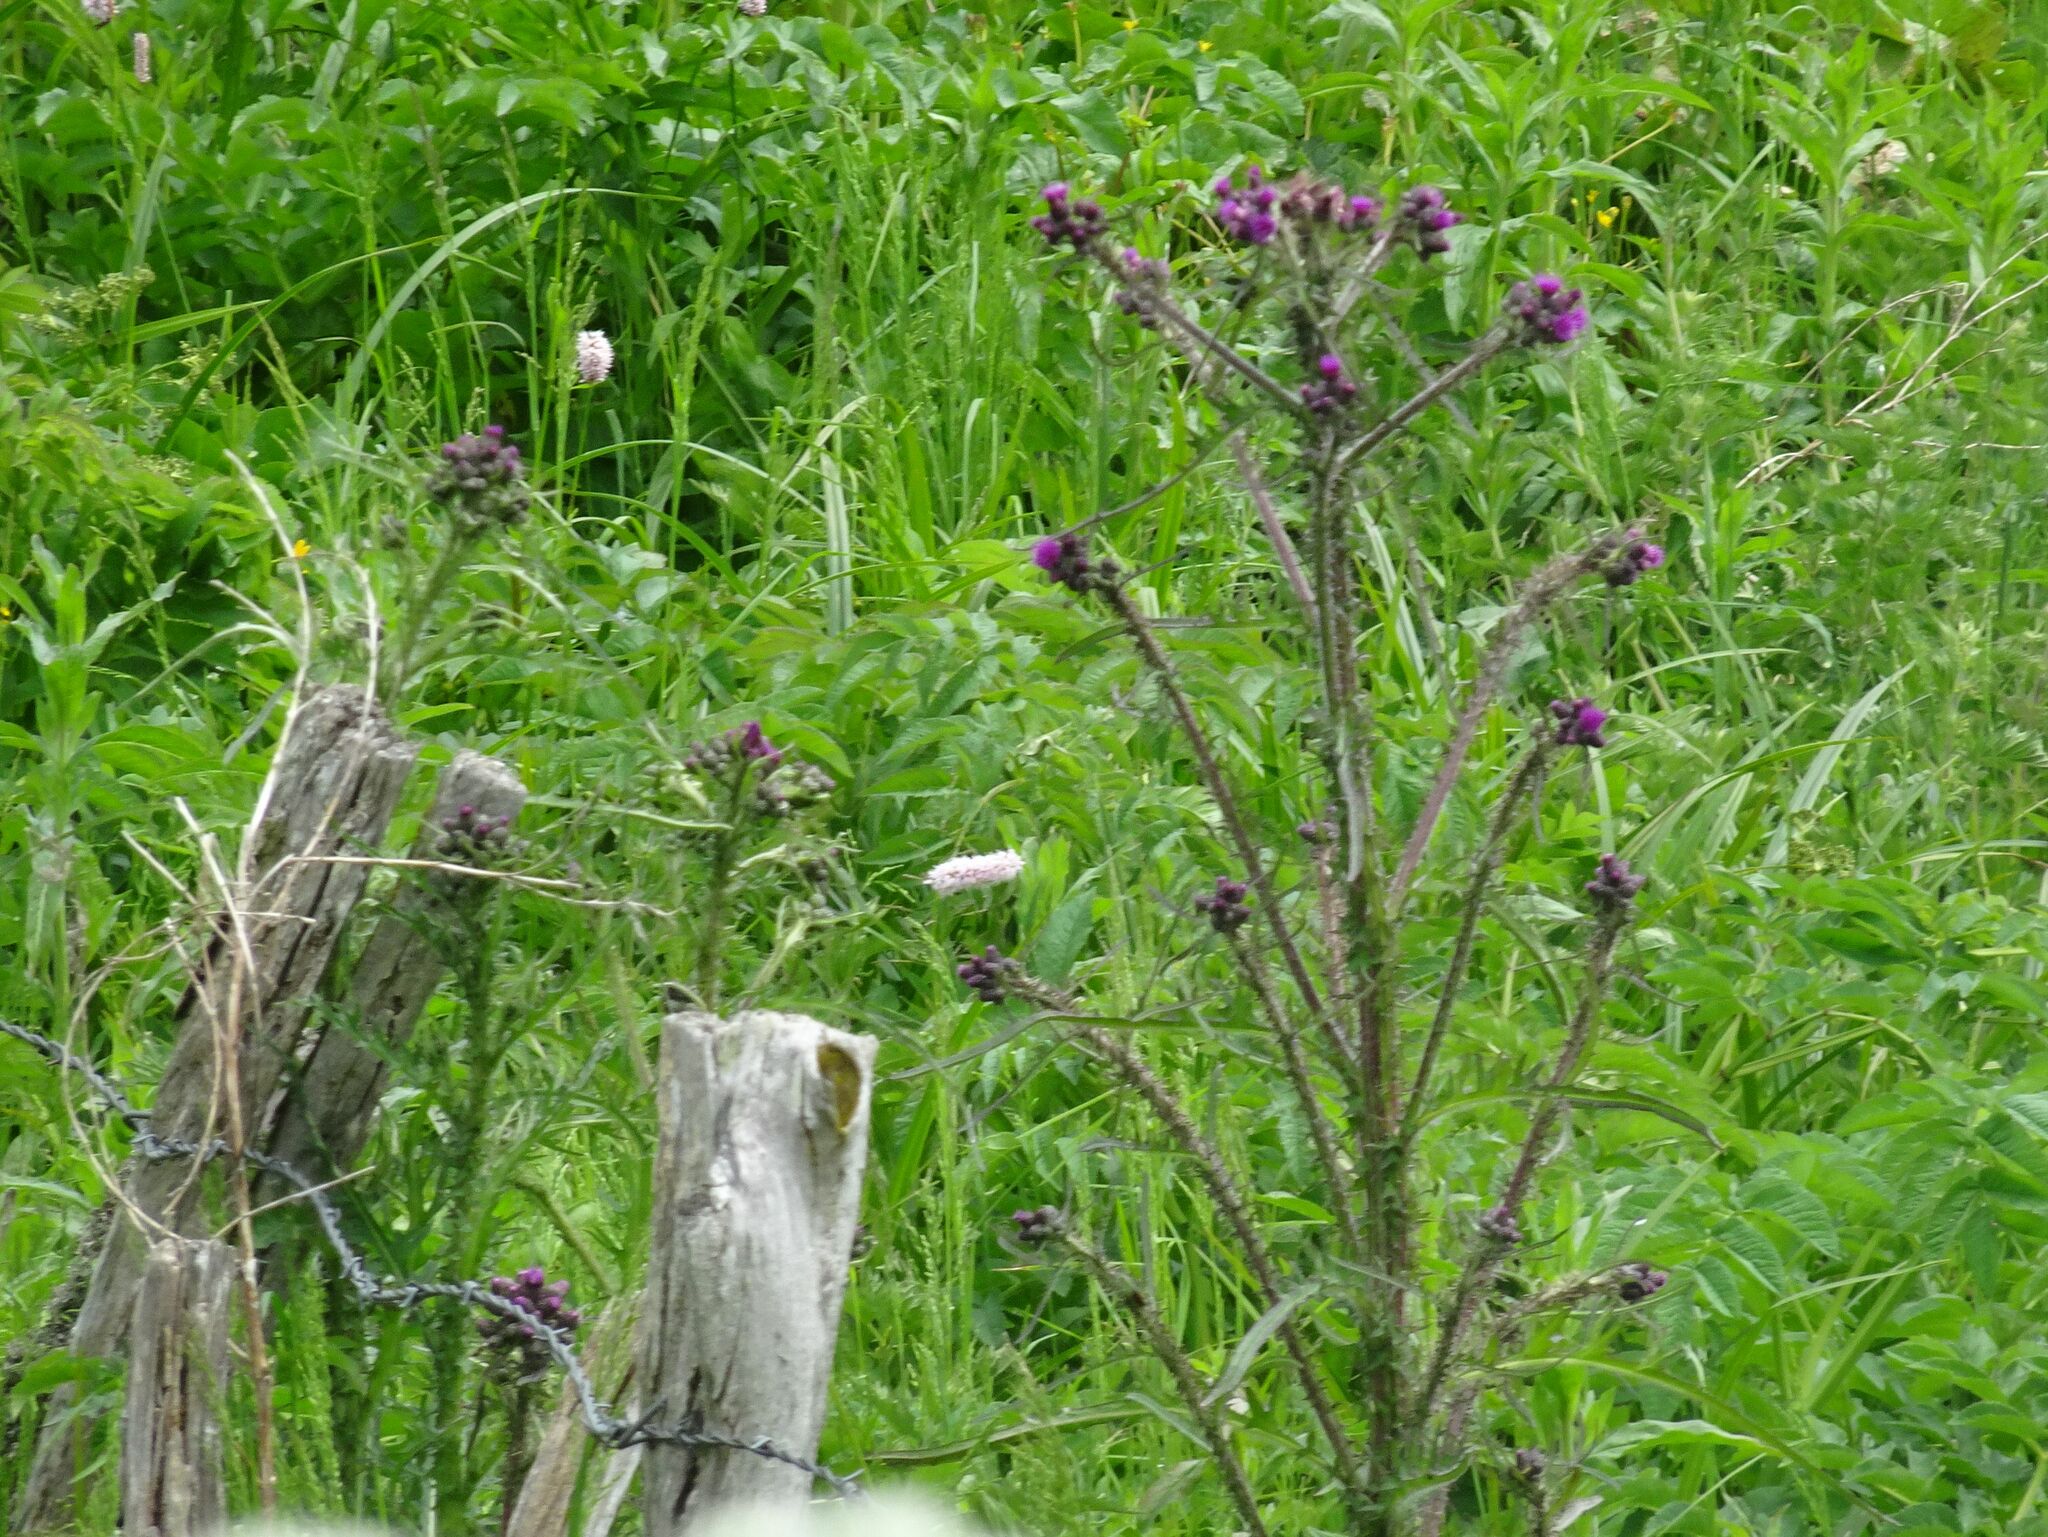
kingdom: Plantae
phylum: Tracheophyta
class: Magnoliopsida
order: Asterales
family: Asteraceae
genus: Cirsium
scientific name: Cirsium palustre
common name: Marsh thistle
